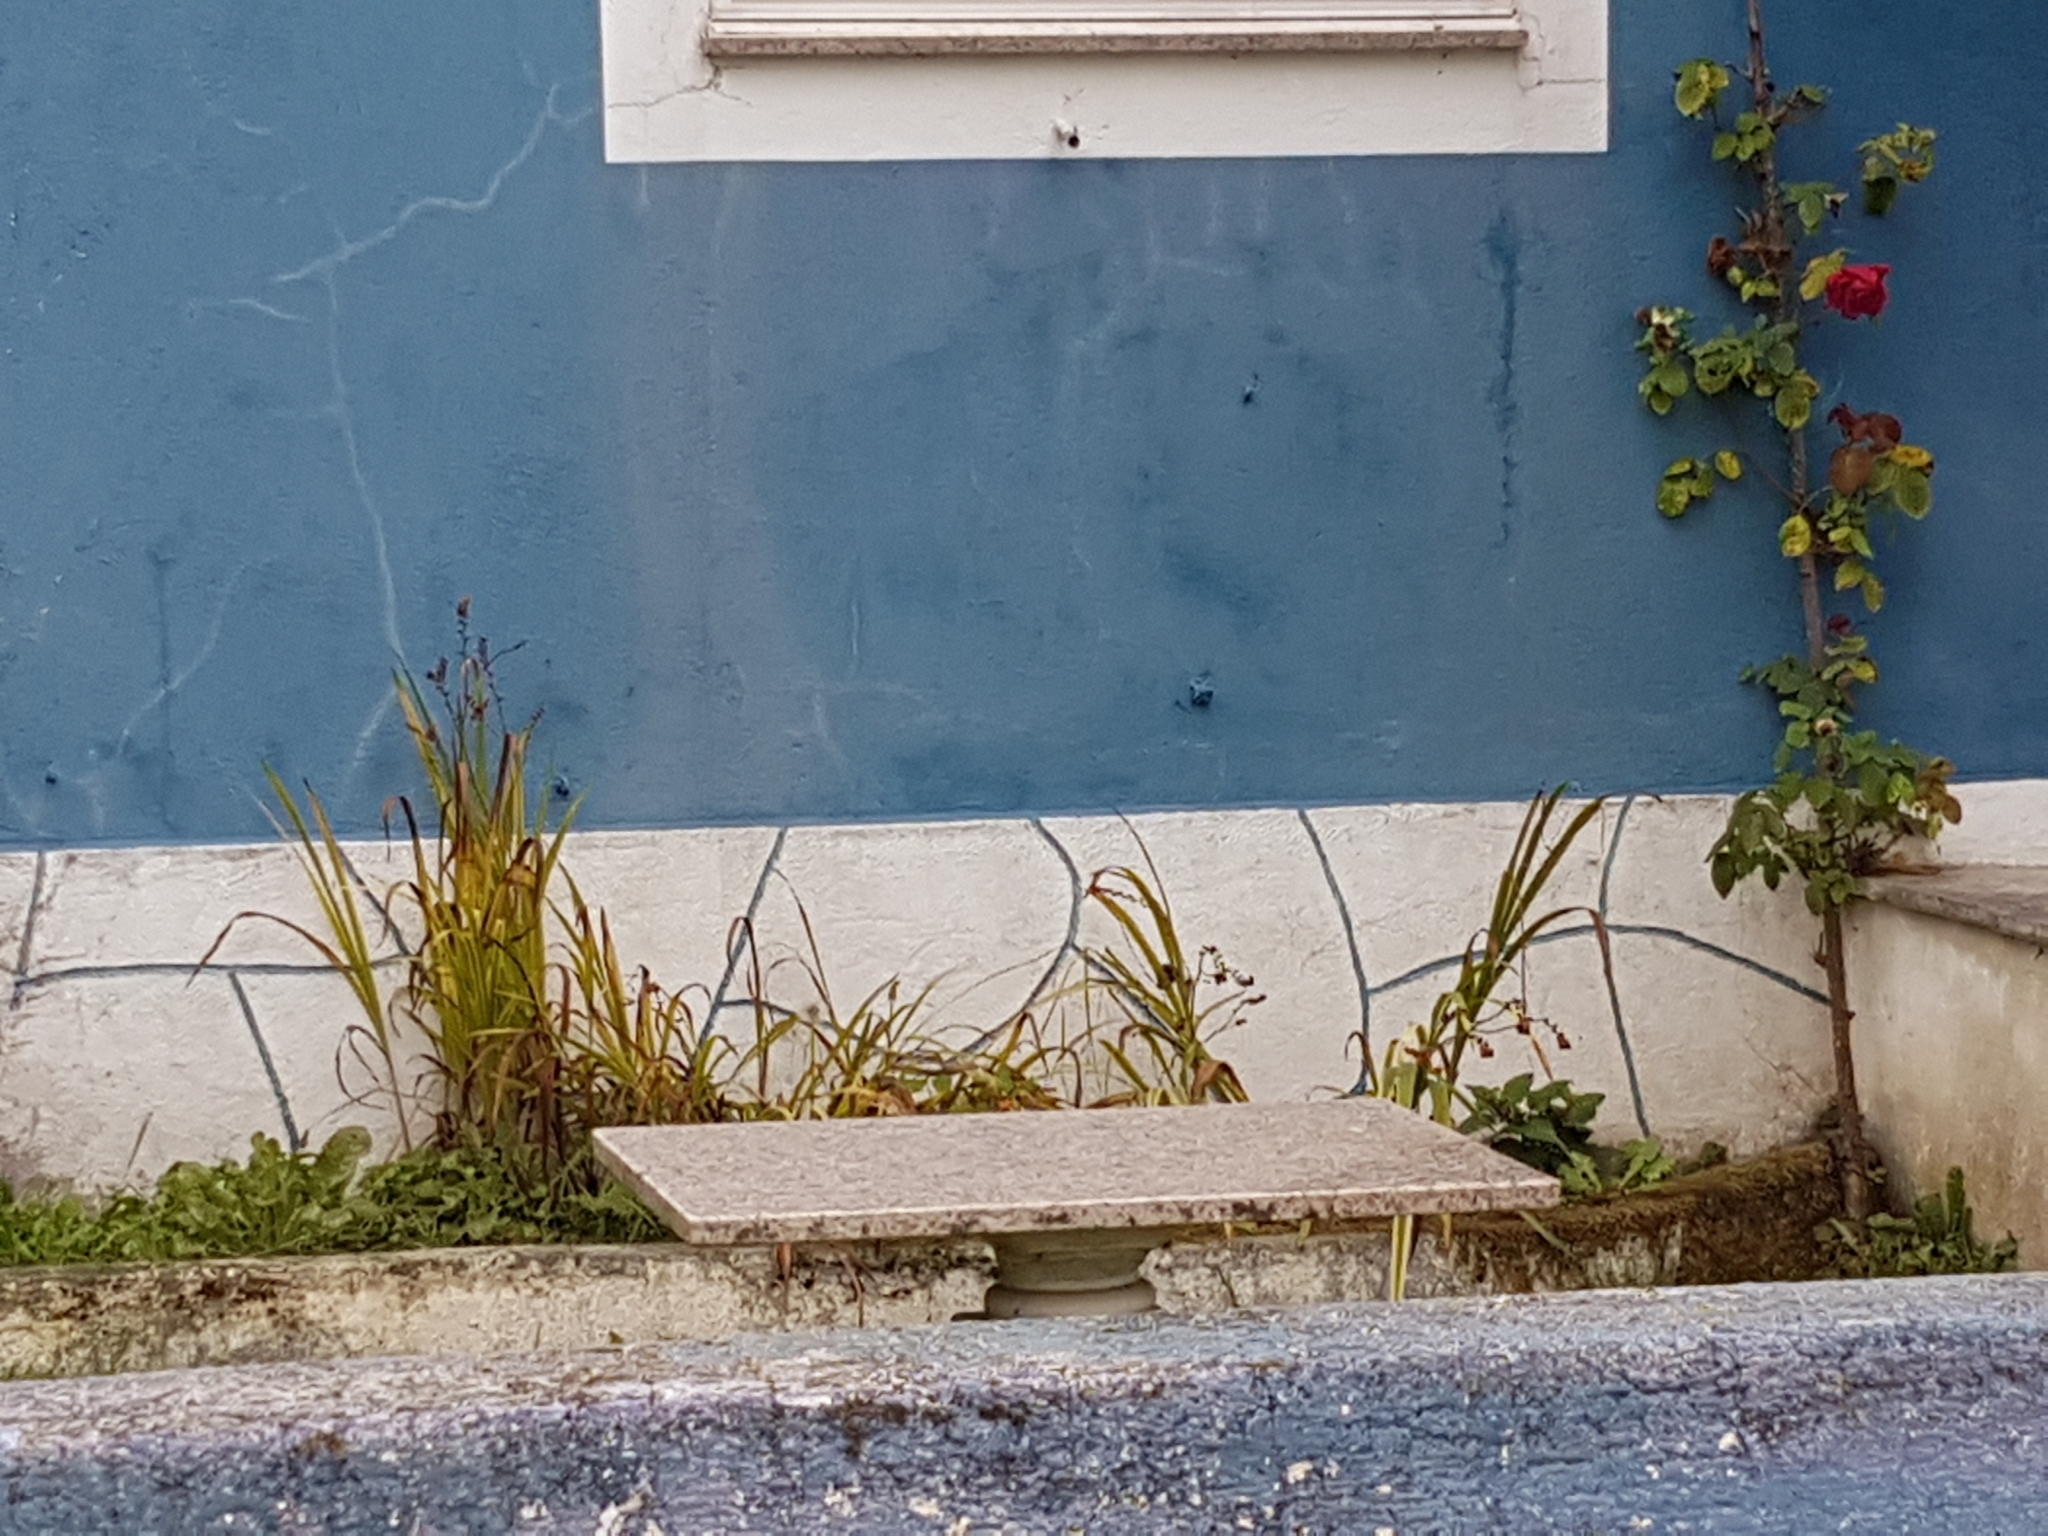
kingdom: Plantae
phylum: Tracheophyta
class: Liliopsida
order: Asparagales
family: Iridaceae
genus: Crocosmia
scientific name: Crocosmia crocosmiiflora
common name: Montbretia
